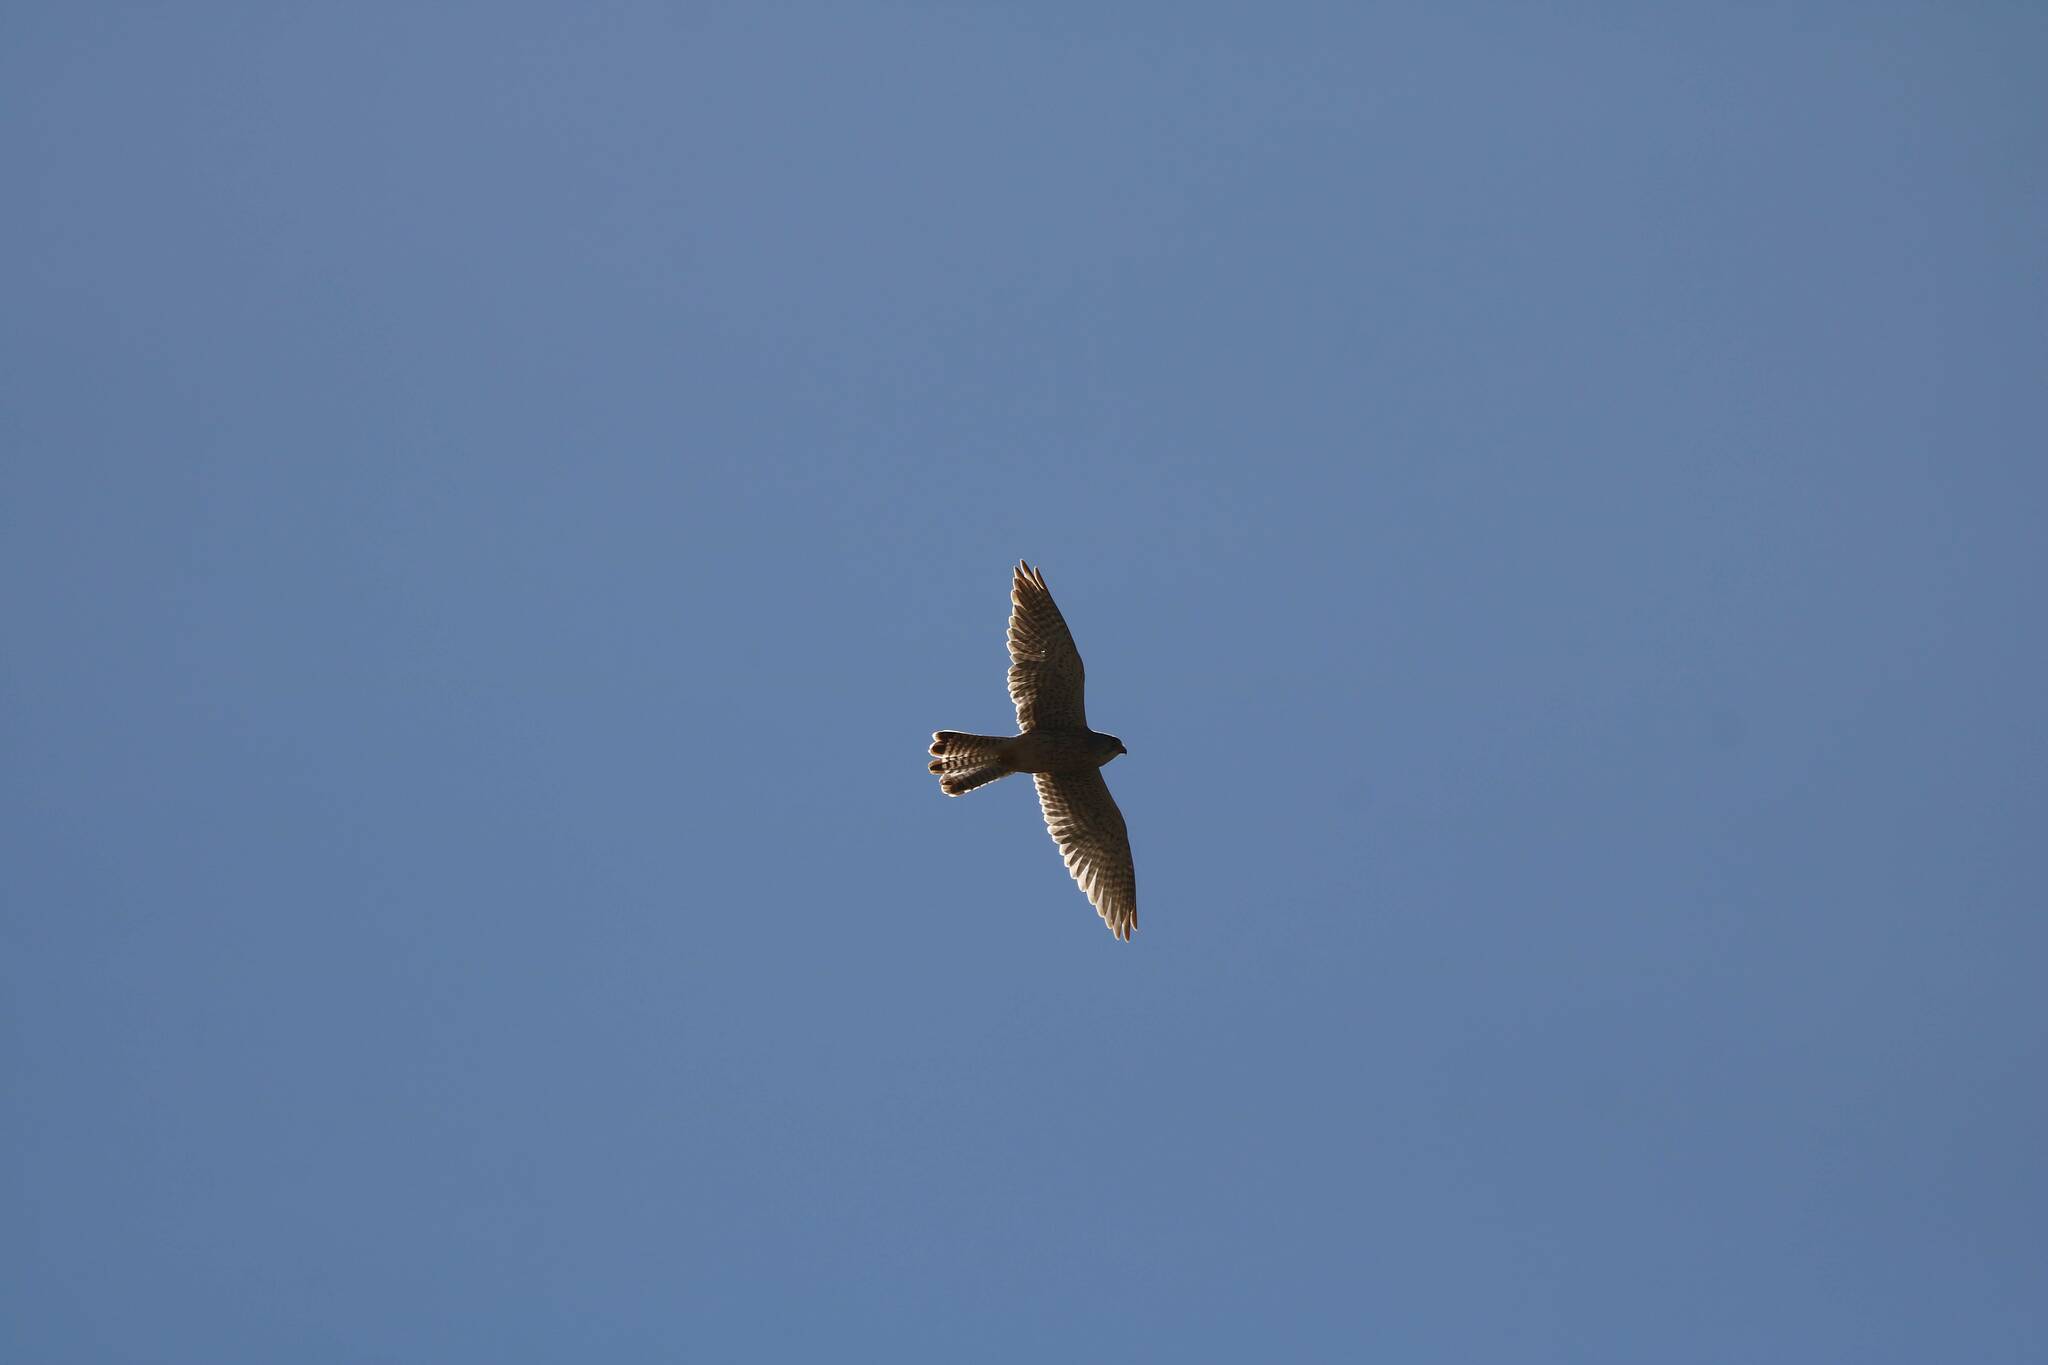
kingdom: Animalia
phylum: Chordata
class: Aves
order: Falconiformes
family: Falconidae
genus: Falco
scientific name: Falco tinnunculus
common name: Common kestrel
